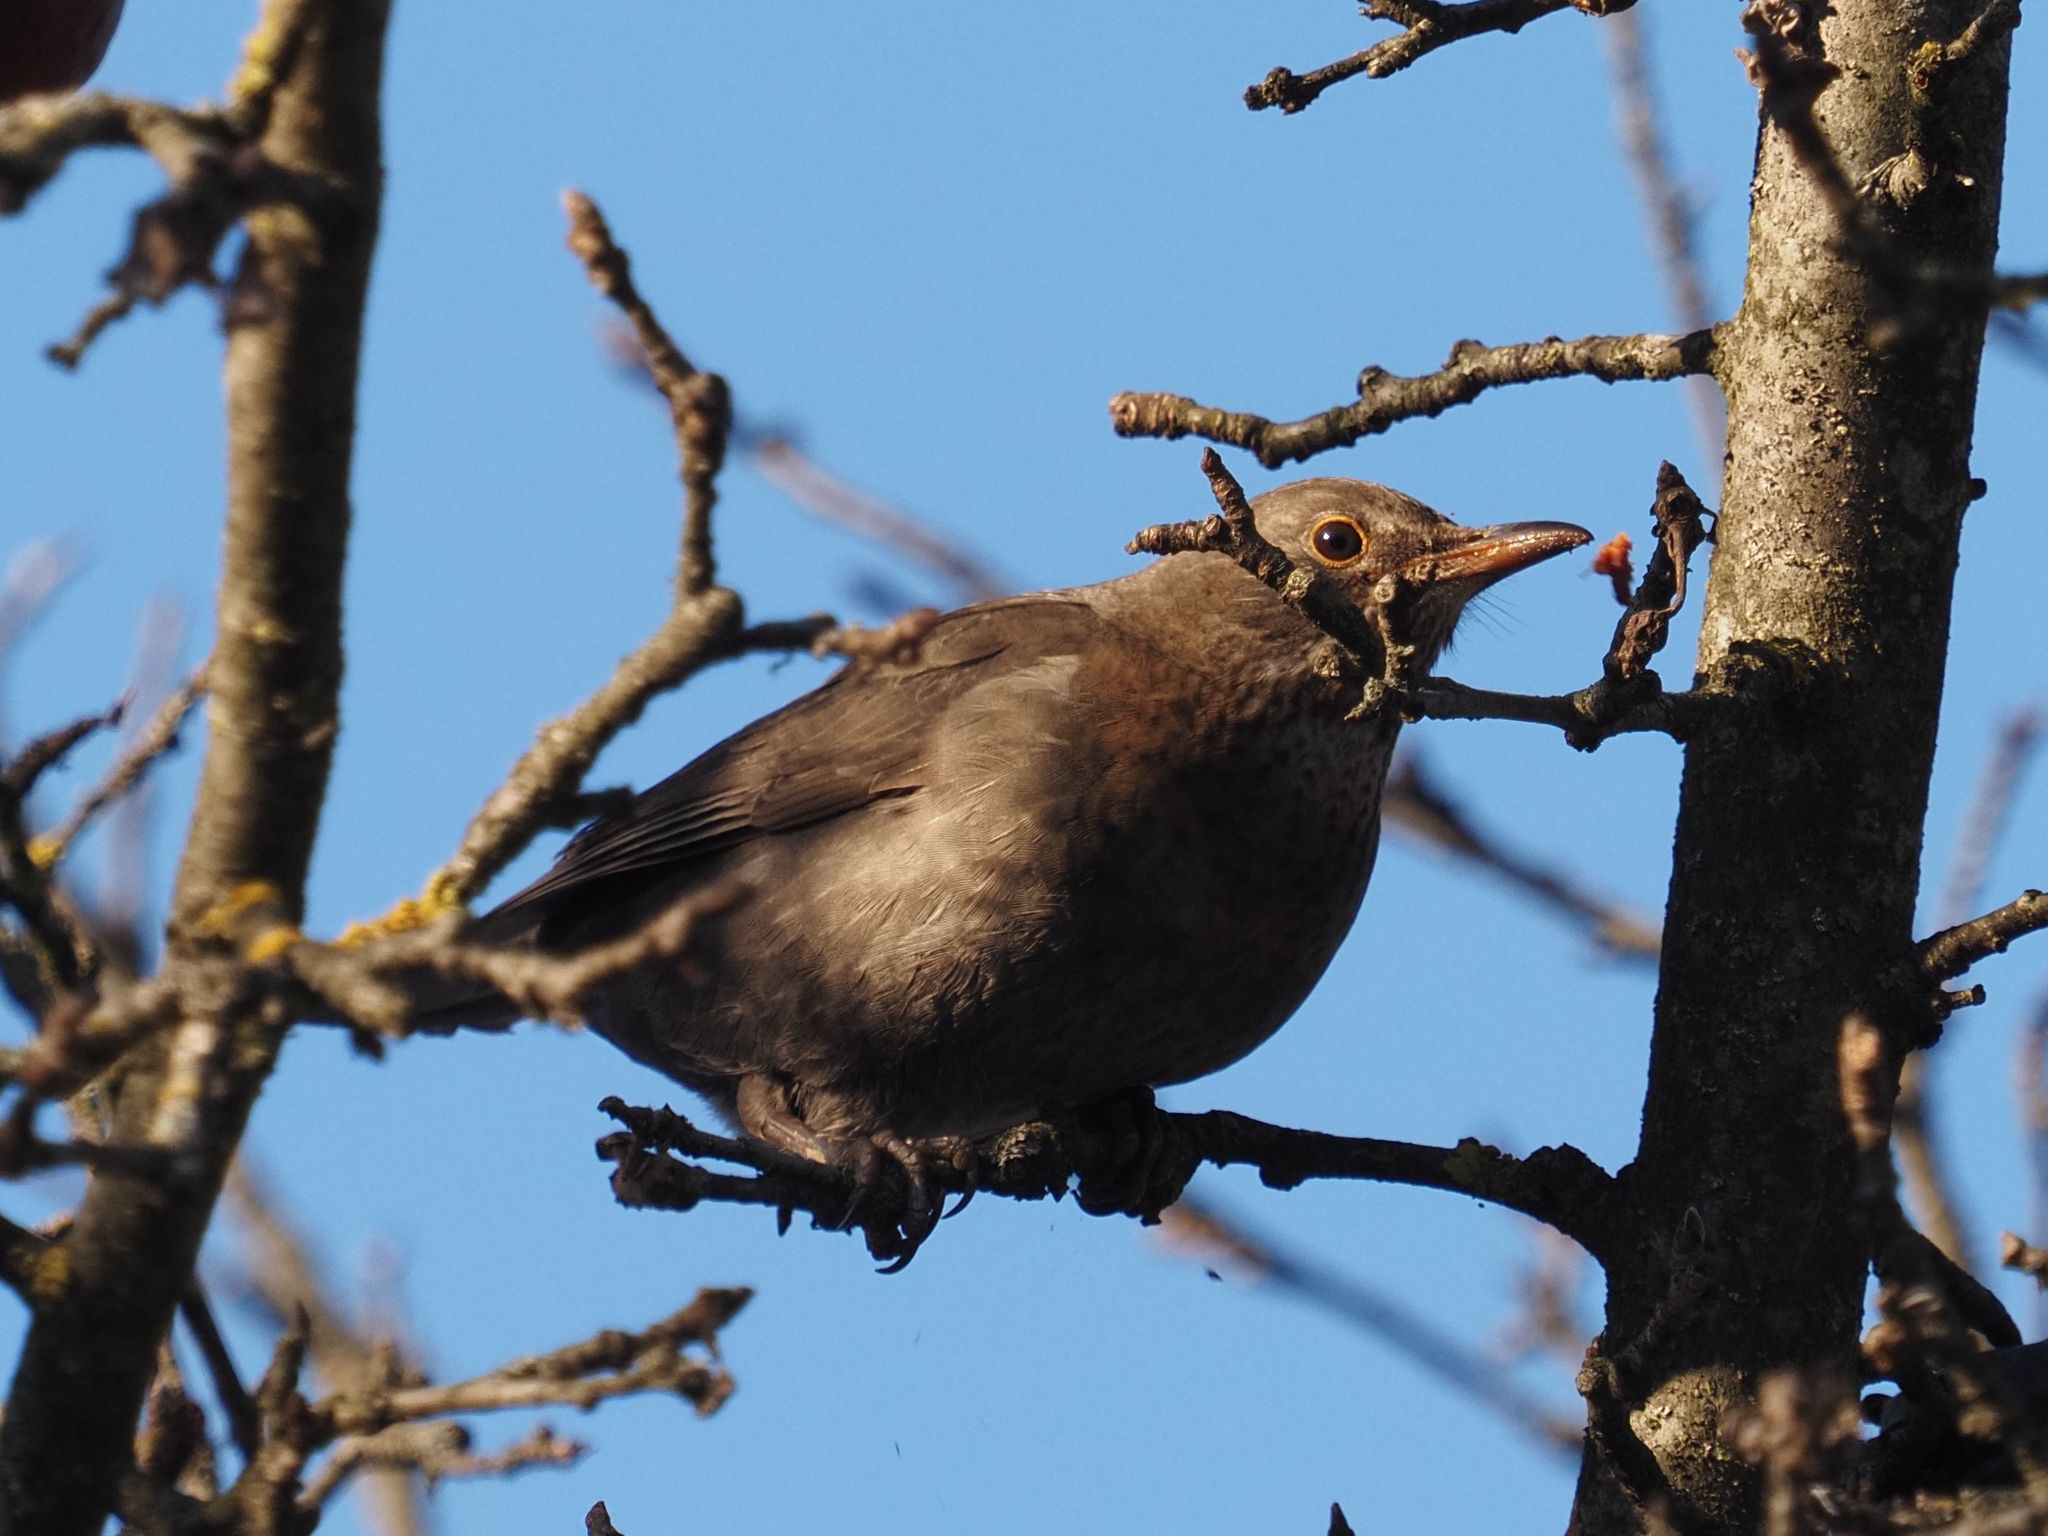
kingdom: Animalia
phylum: Chordata
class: Aves
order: Passeriformes
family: Turdidae
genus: Turdus
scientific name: Turdus merula
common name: Common blackbird
